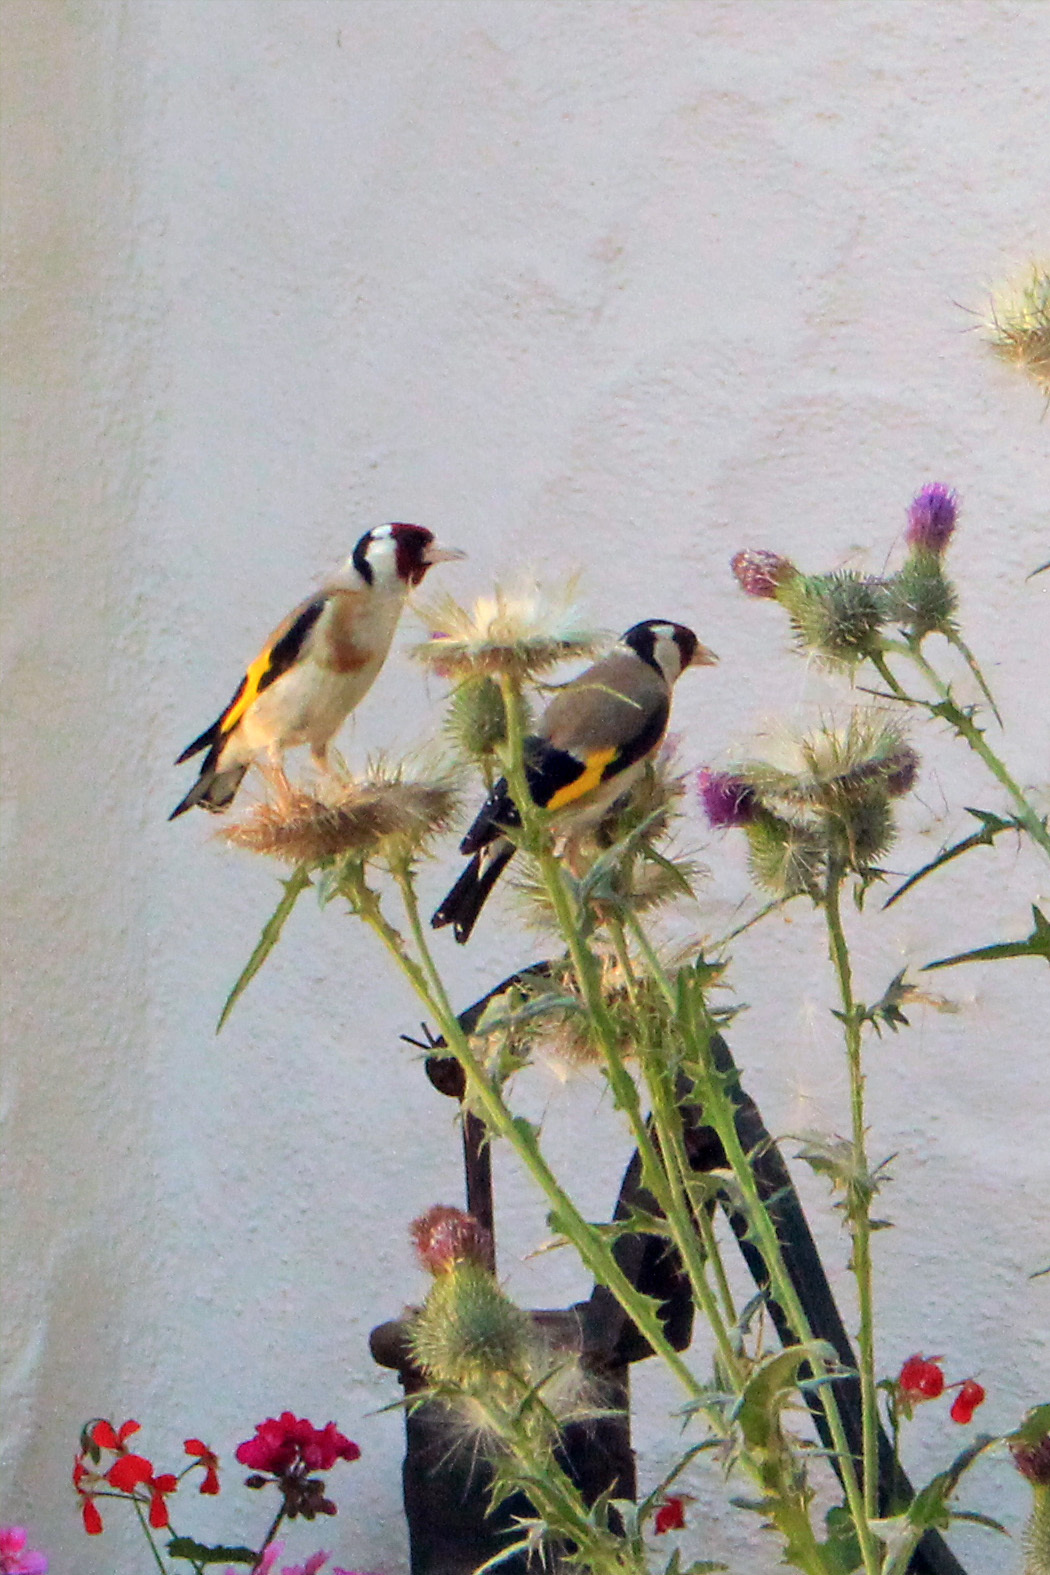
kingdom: Animalia
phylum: Chordata
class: Aves
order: Passeriformes
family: Fringillidae
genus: Carduelis
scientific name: Carduelis carduelis
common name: European goldfinch
